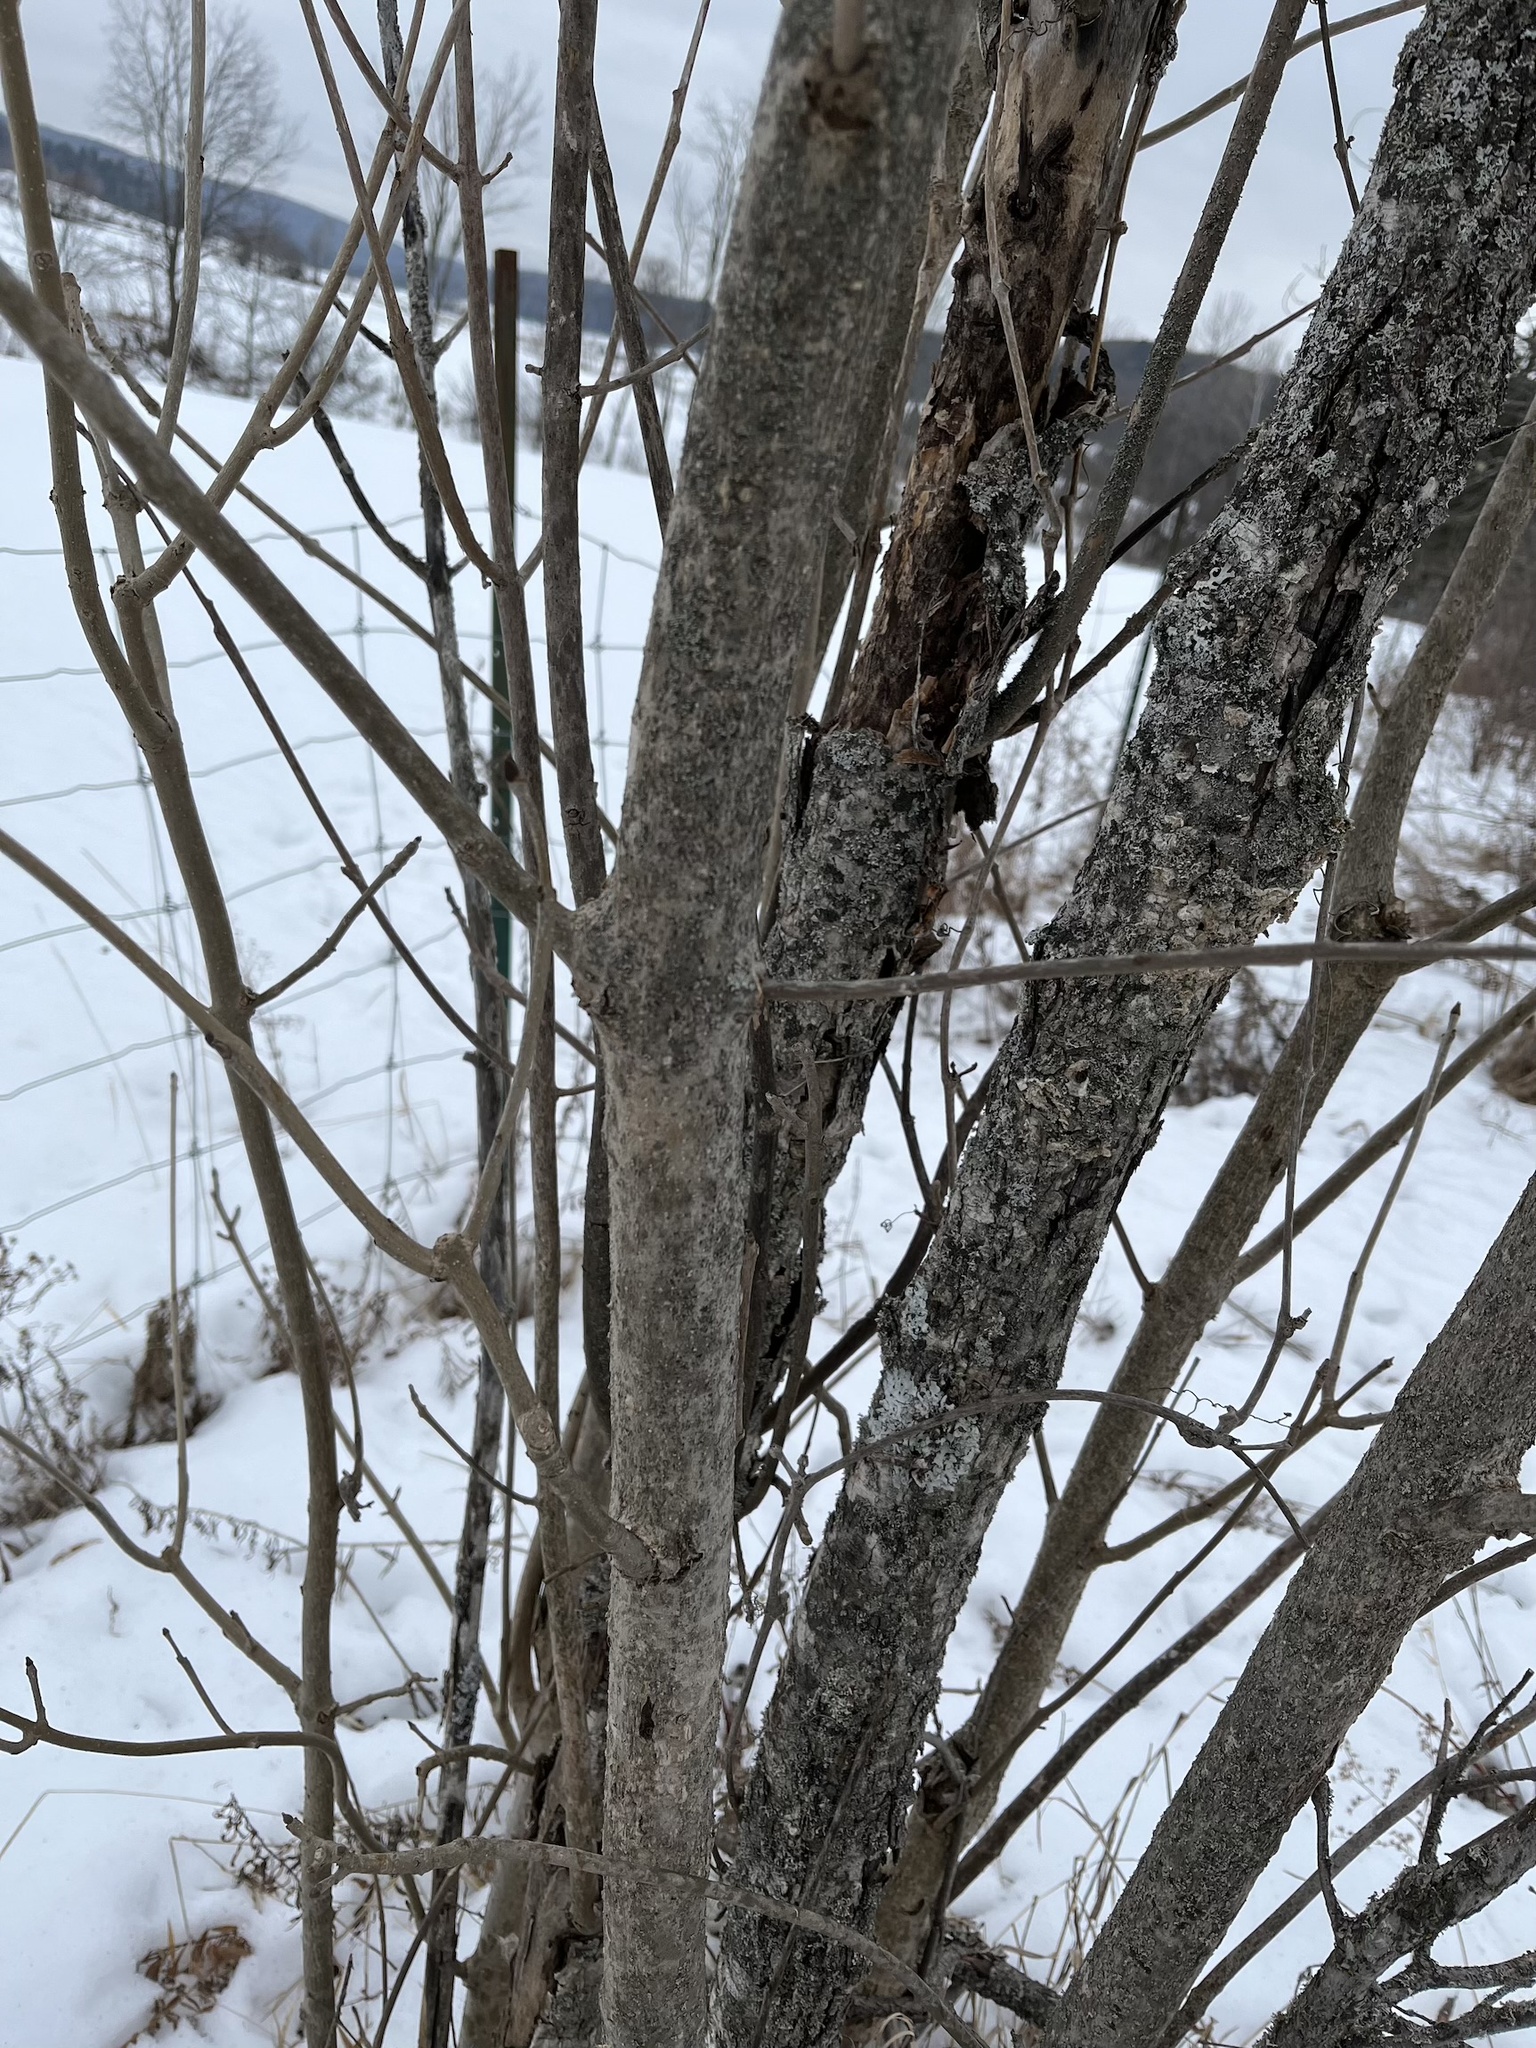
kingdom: Plantae
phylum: Tracheophyta
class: Magnoliopsida
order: Lamiales
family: Oleaceae
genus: Fraxinus
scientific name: Fraxinus pennsylvanica
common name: Green ash
